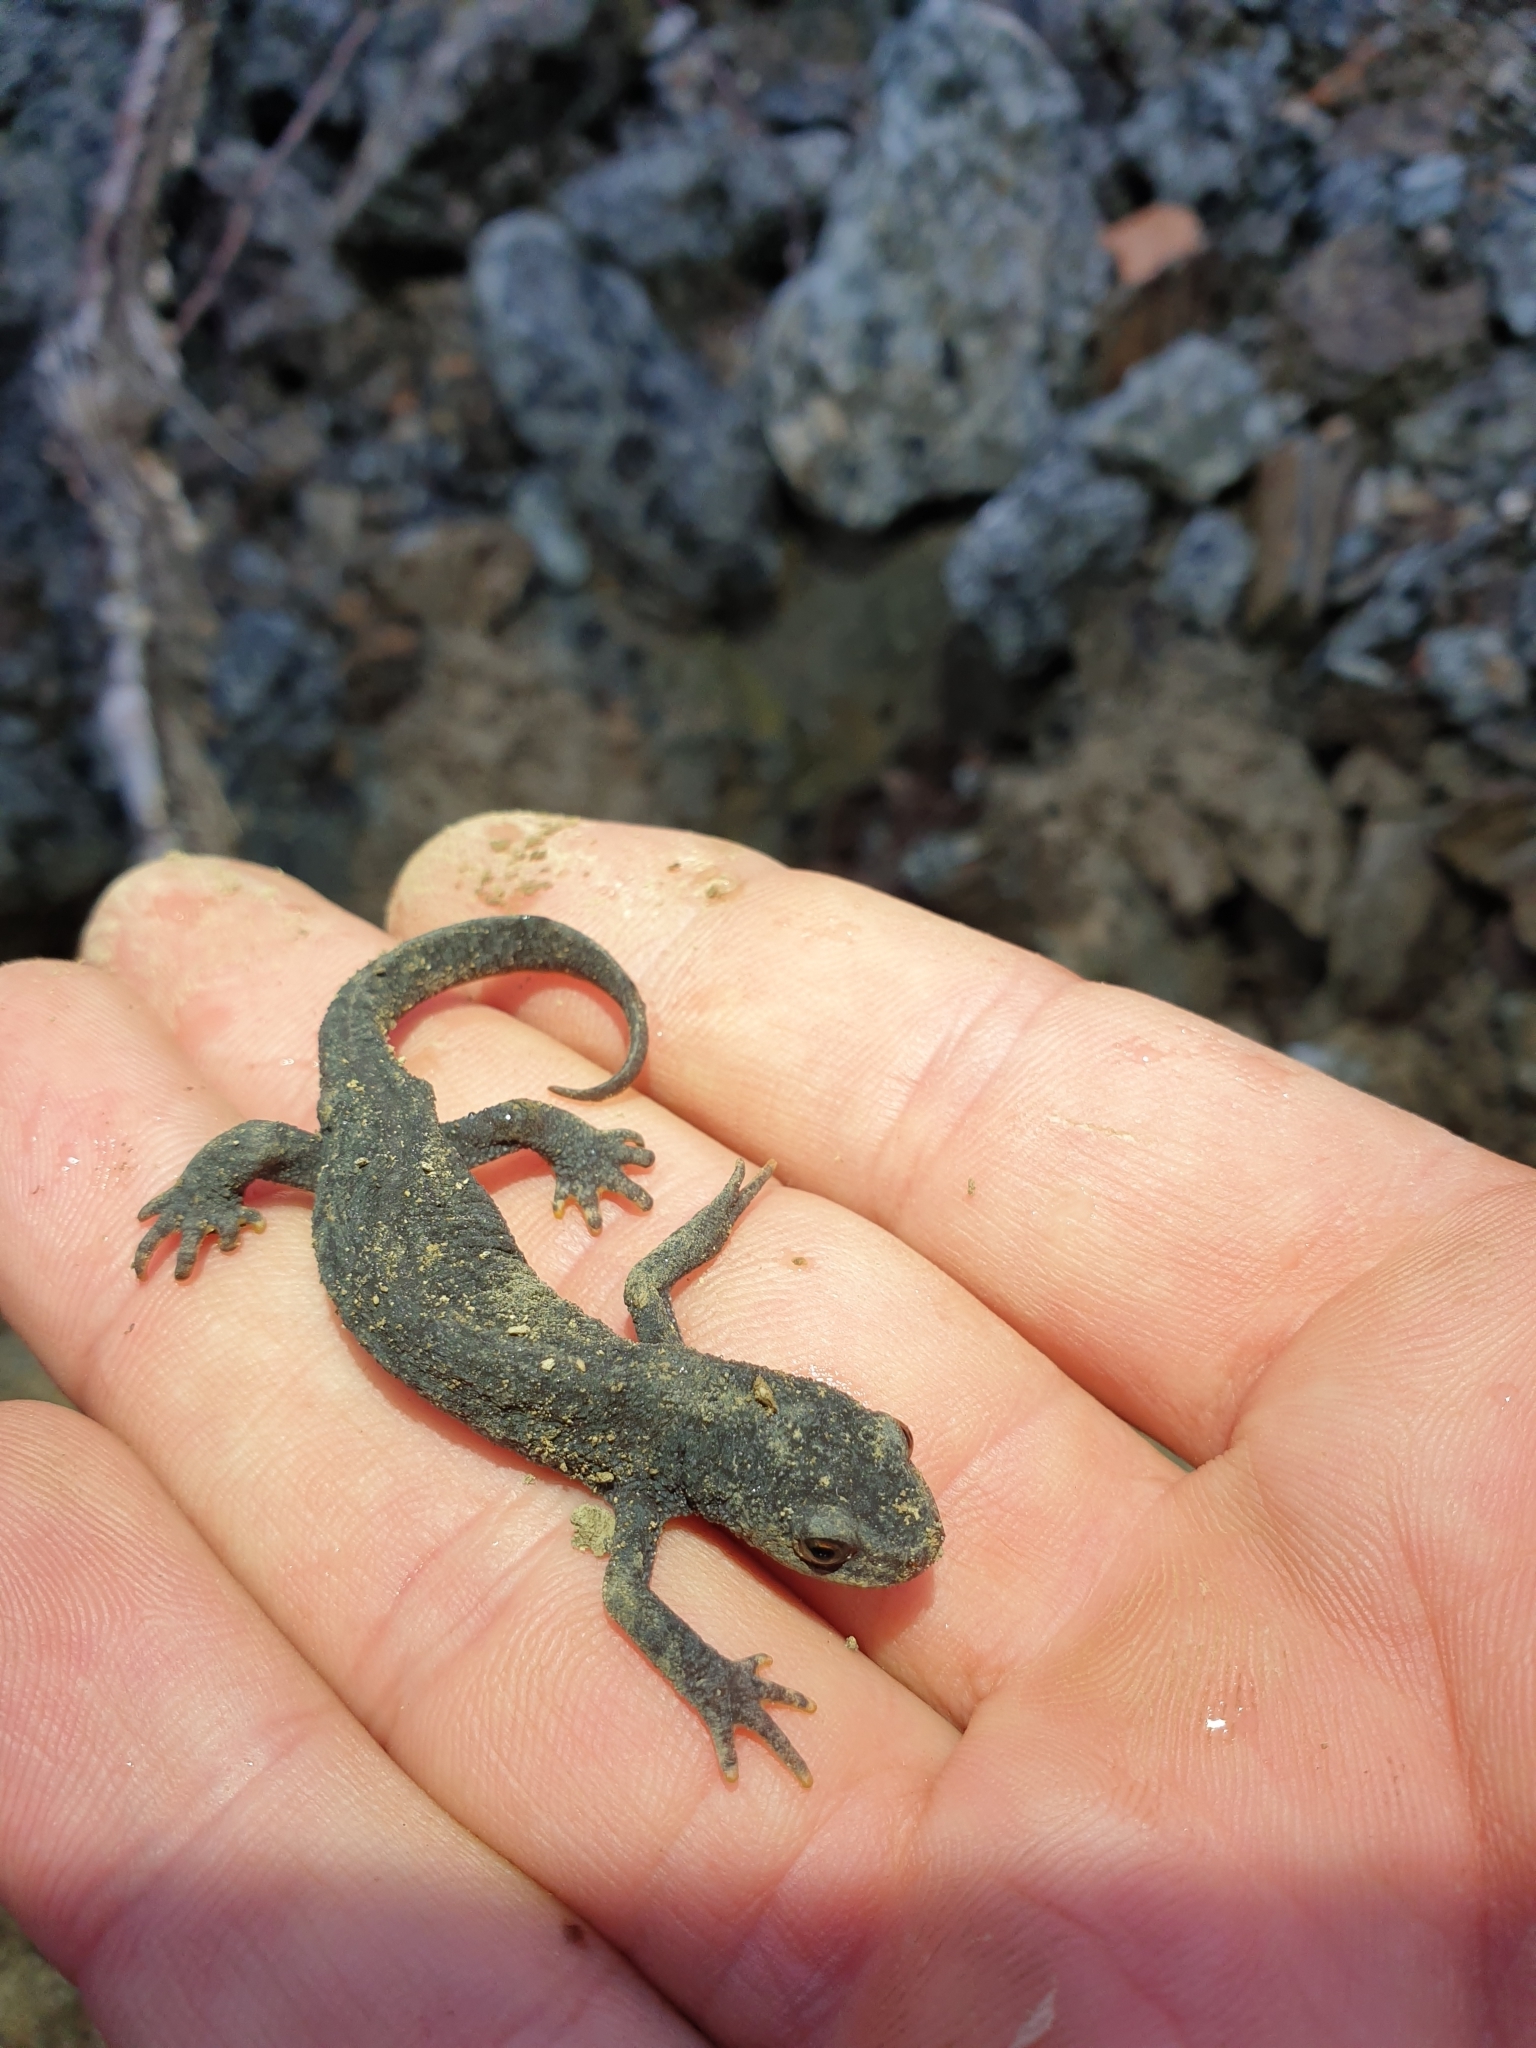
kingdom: Animalia
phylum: Chordata
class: Amphibia
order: Caudata
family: Salamandridae
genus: Ichthyosaura
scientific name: Ichthyosaura alpestris
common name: Alpine newt
